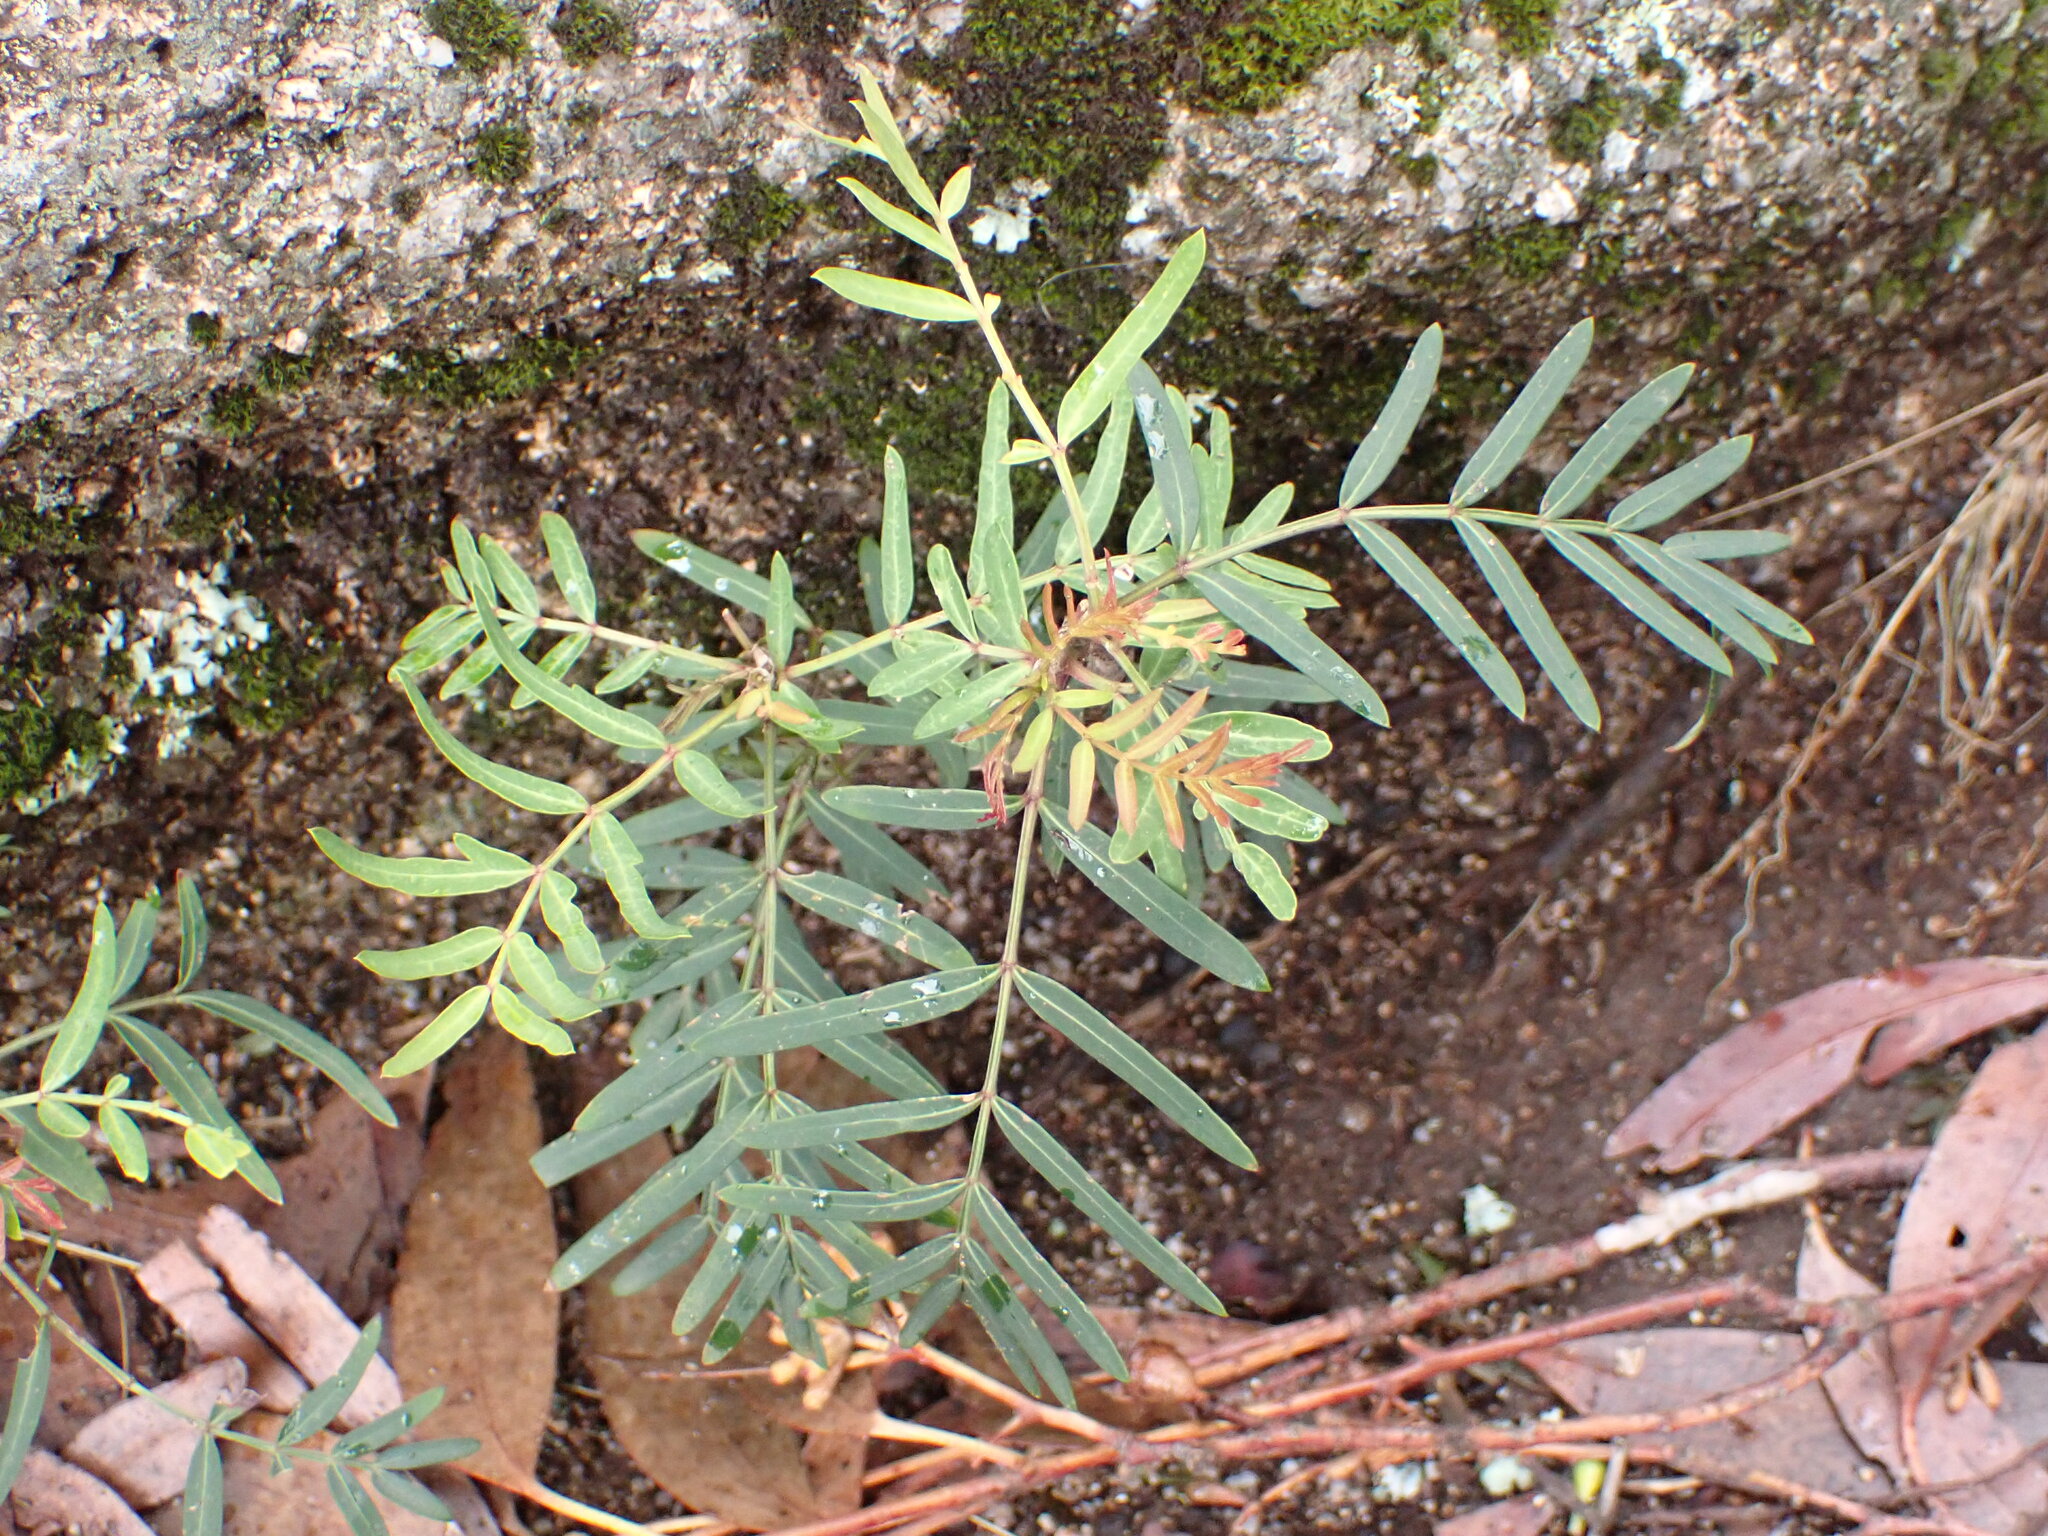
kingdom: Plantae
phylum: Tracheophyta
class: Magnoliopsida
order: Apiales
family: Araliaceae
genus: Polyscias
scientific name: Polyscias sambucifolia
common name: Elderberry-ash
